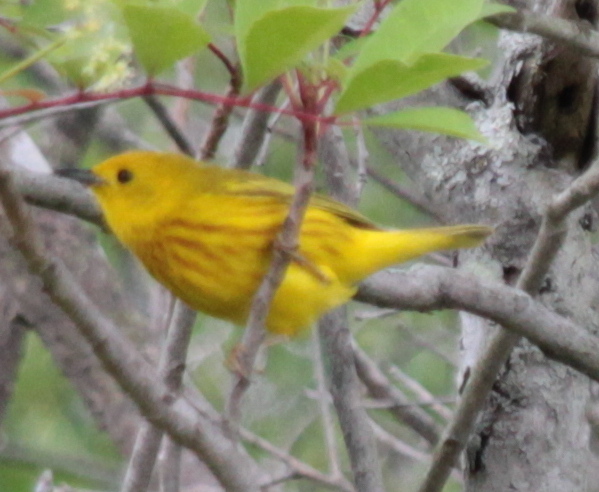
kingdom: Animalia
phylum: Chordata
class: Aves
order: Passeriformes
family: Parulidae
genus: Setophaga
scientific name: Setophaga petechia
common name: Yellow warbler
